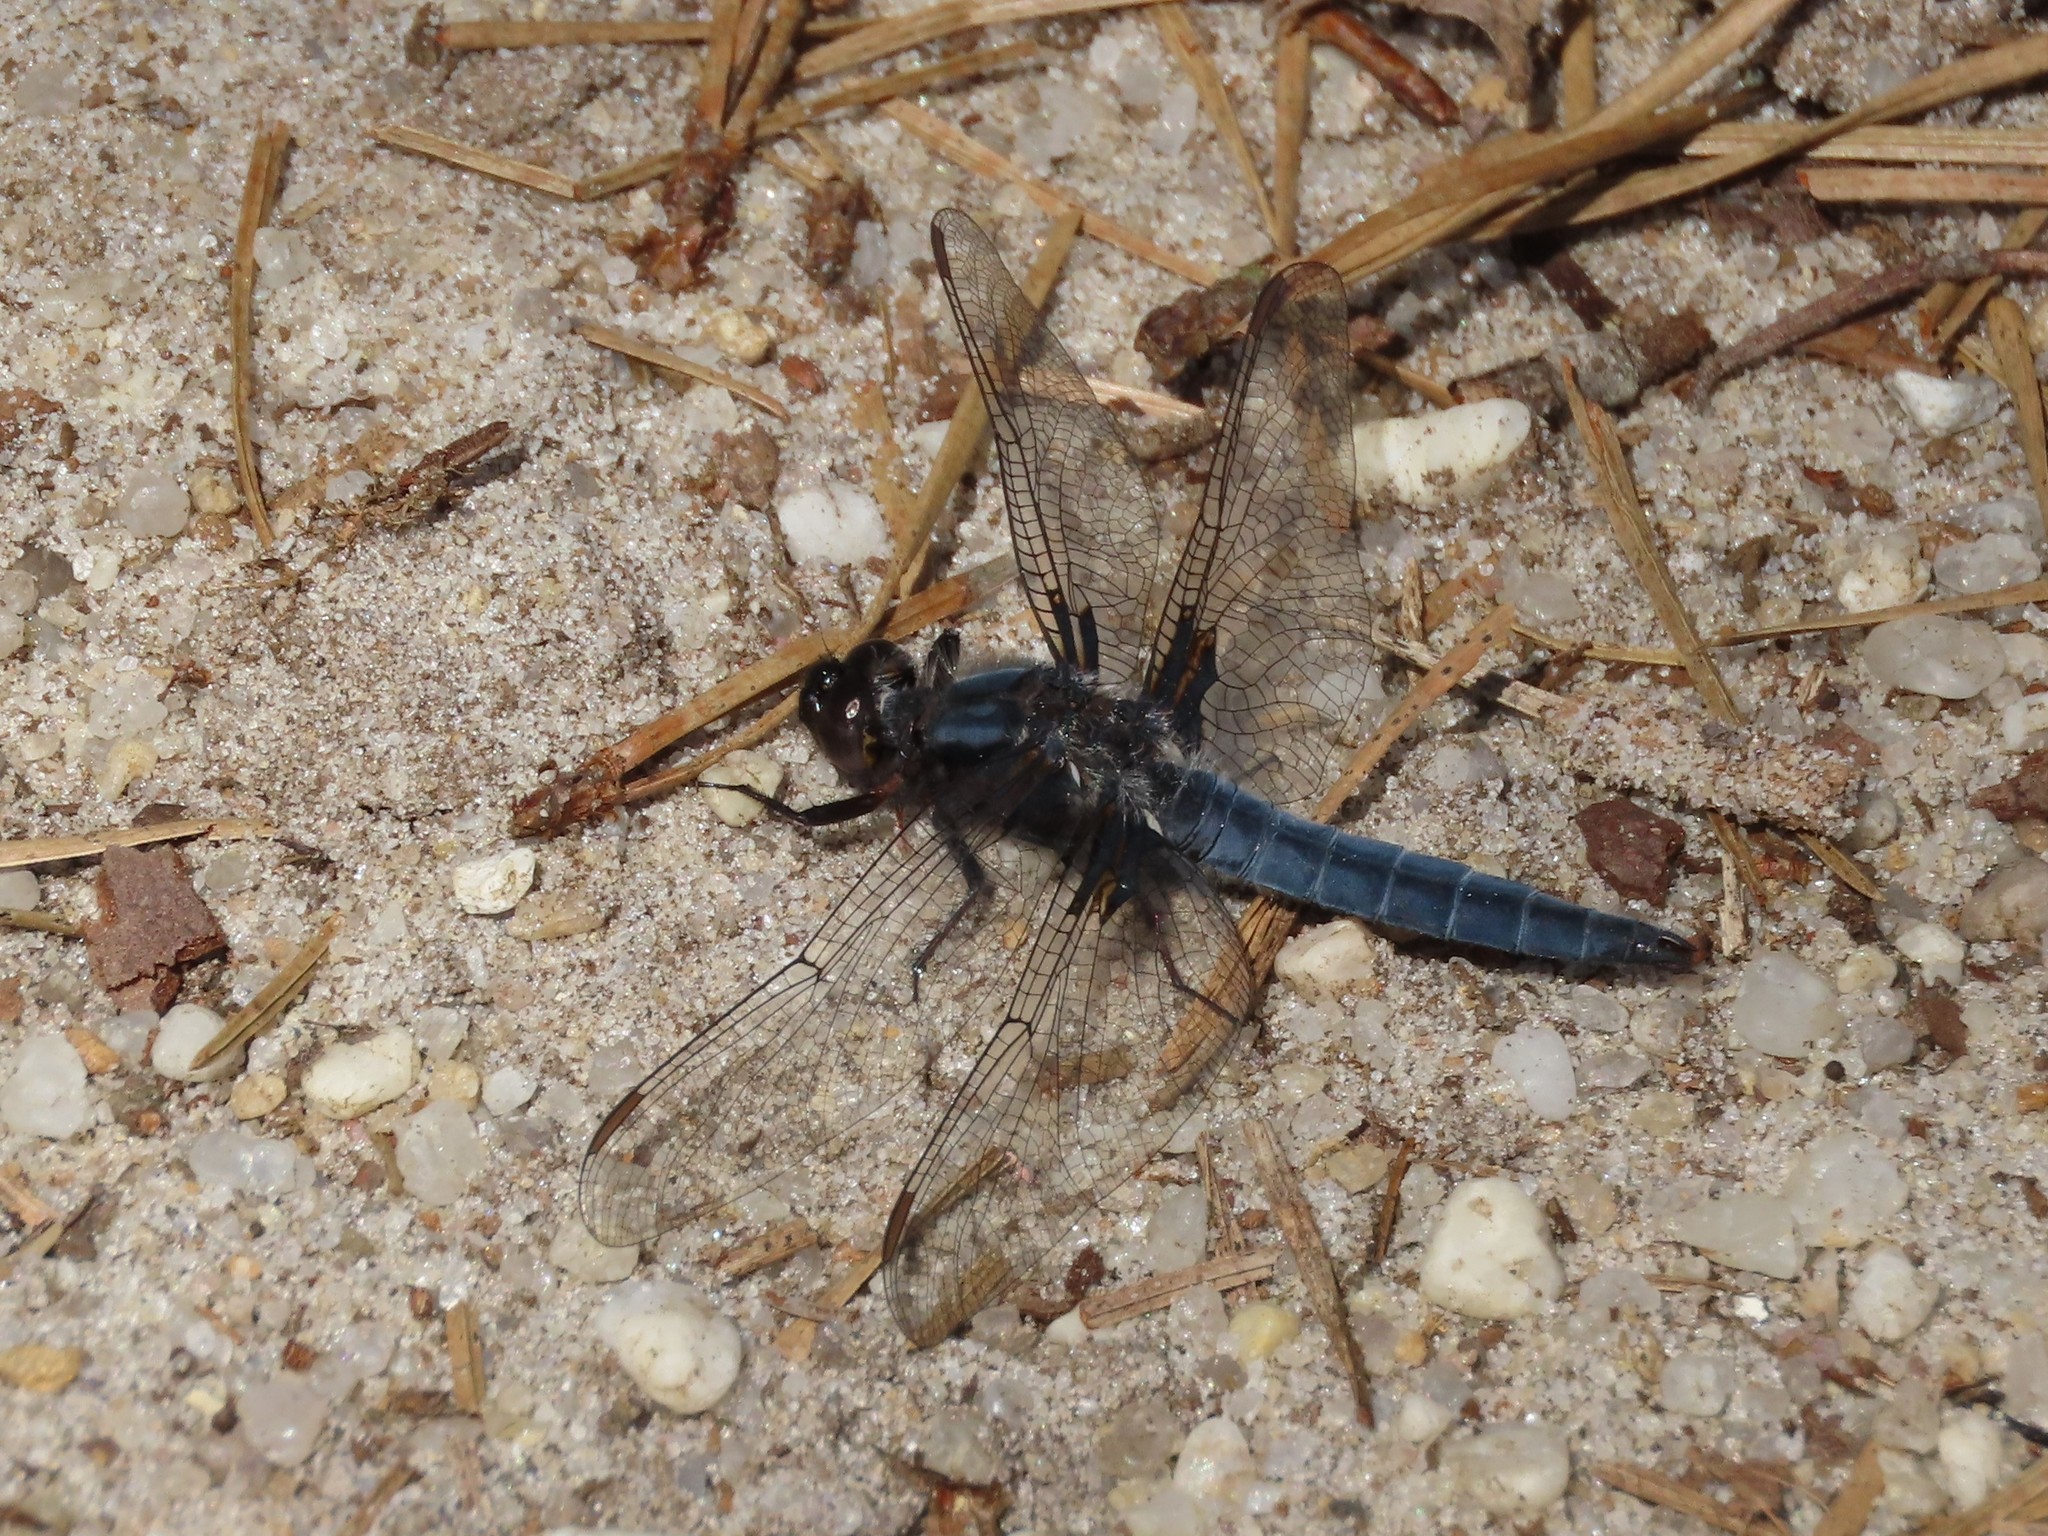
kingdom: Animalia
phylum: Arthropoda
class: Insecta
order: Odonata
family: Libellulidae
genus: Ladona
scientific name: Ladona deplanata
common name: Blue corporal
